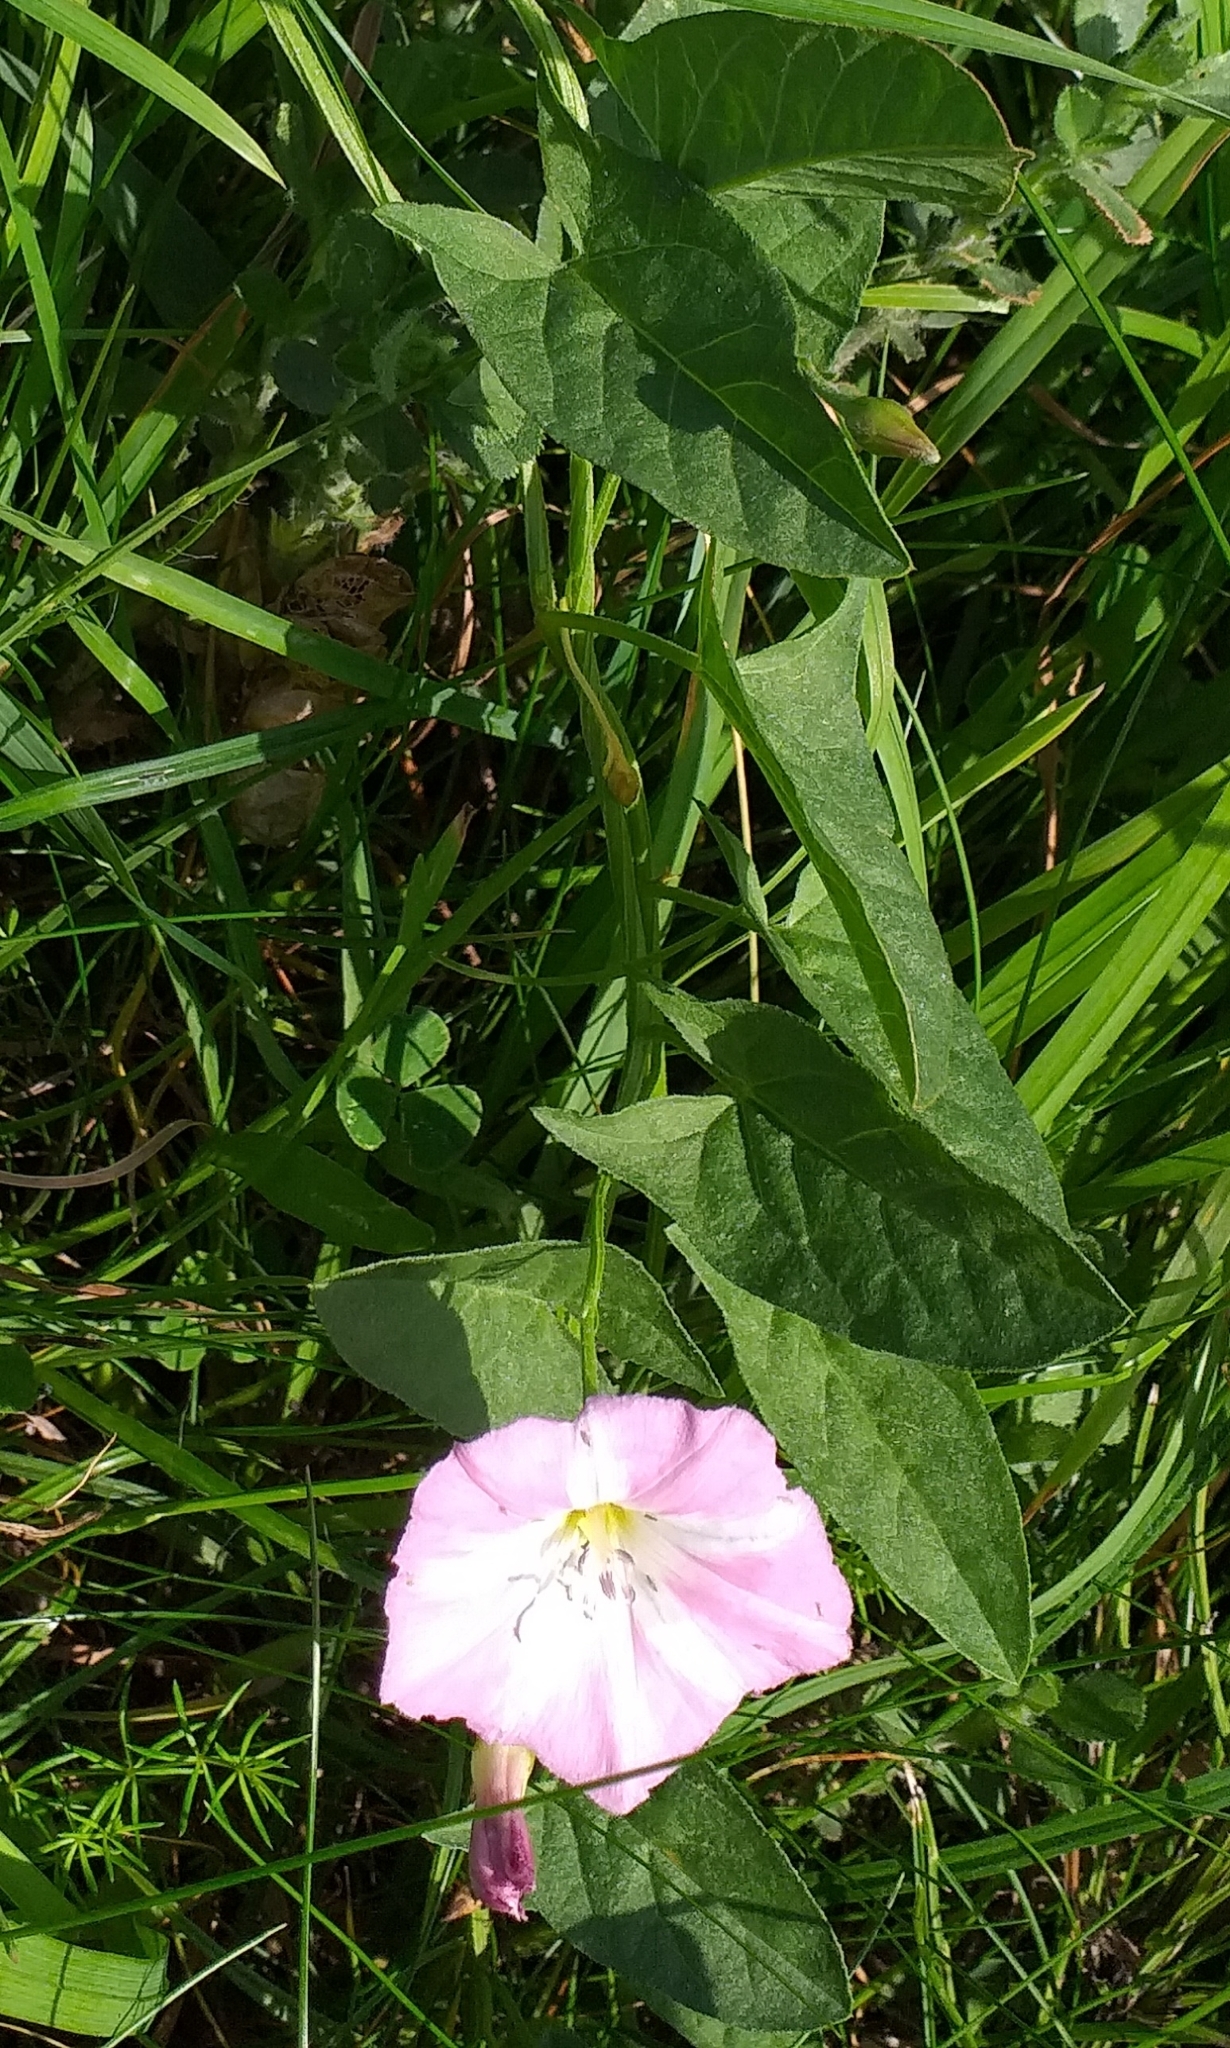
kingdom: Plantae
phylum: Tracheophyta
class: Magnoliopsida
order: Solanales
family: Convolvulaceae
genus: Convolvulus
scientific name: Convolvulus arvensis
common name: Field bindweed
